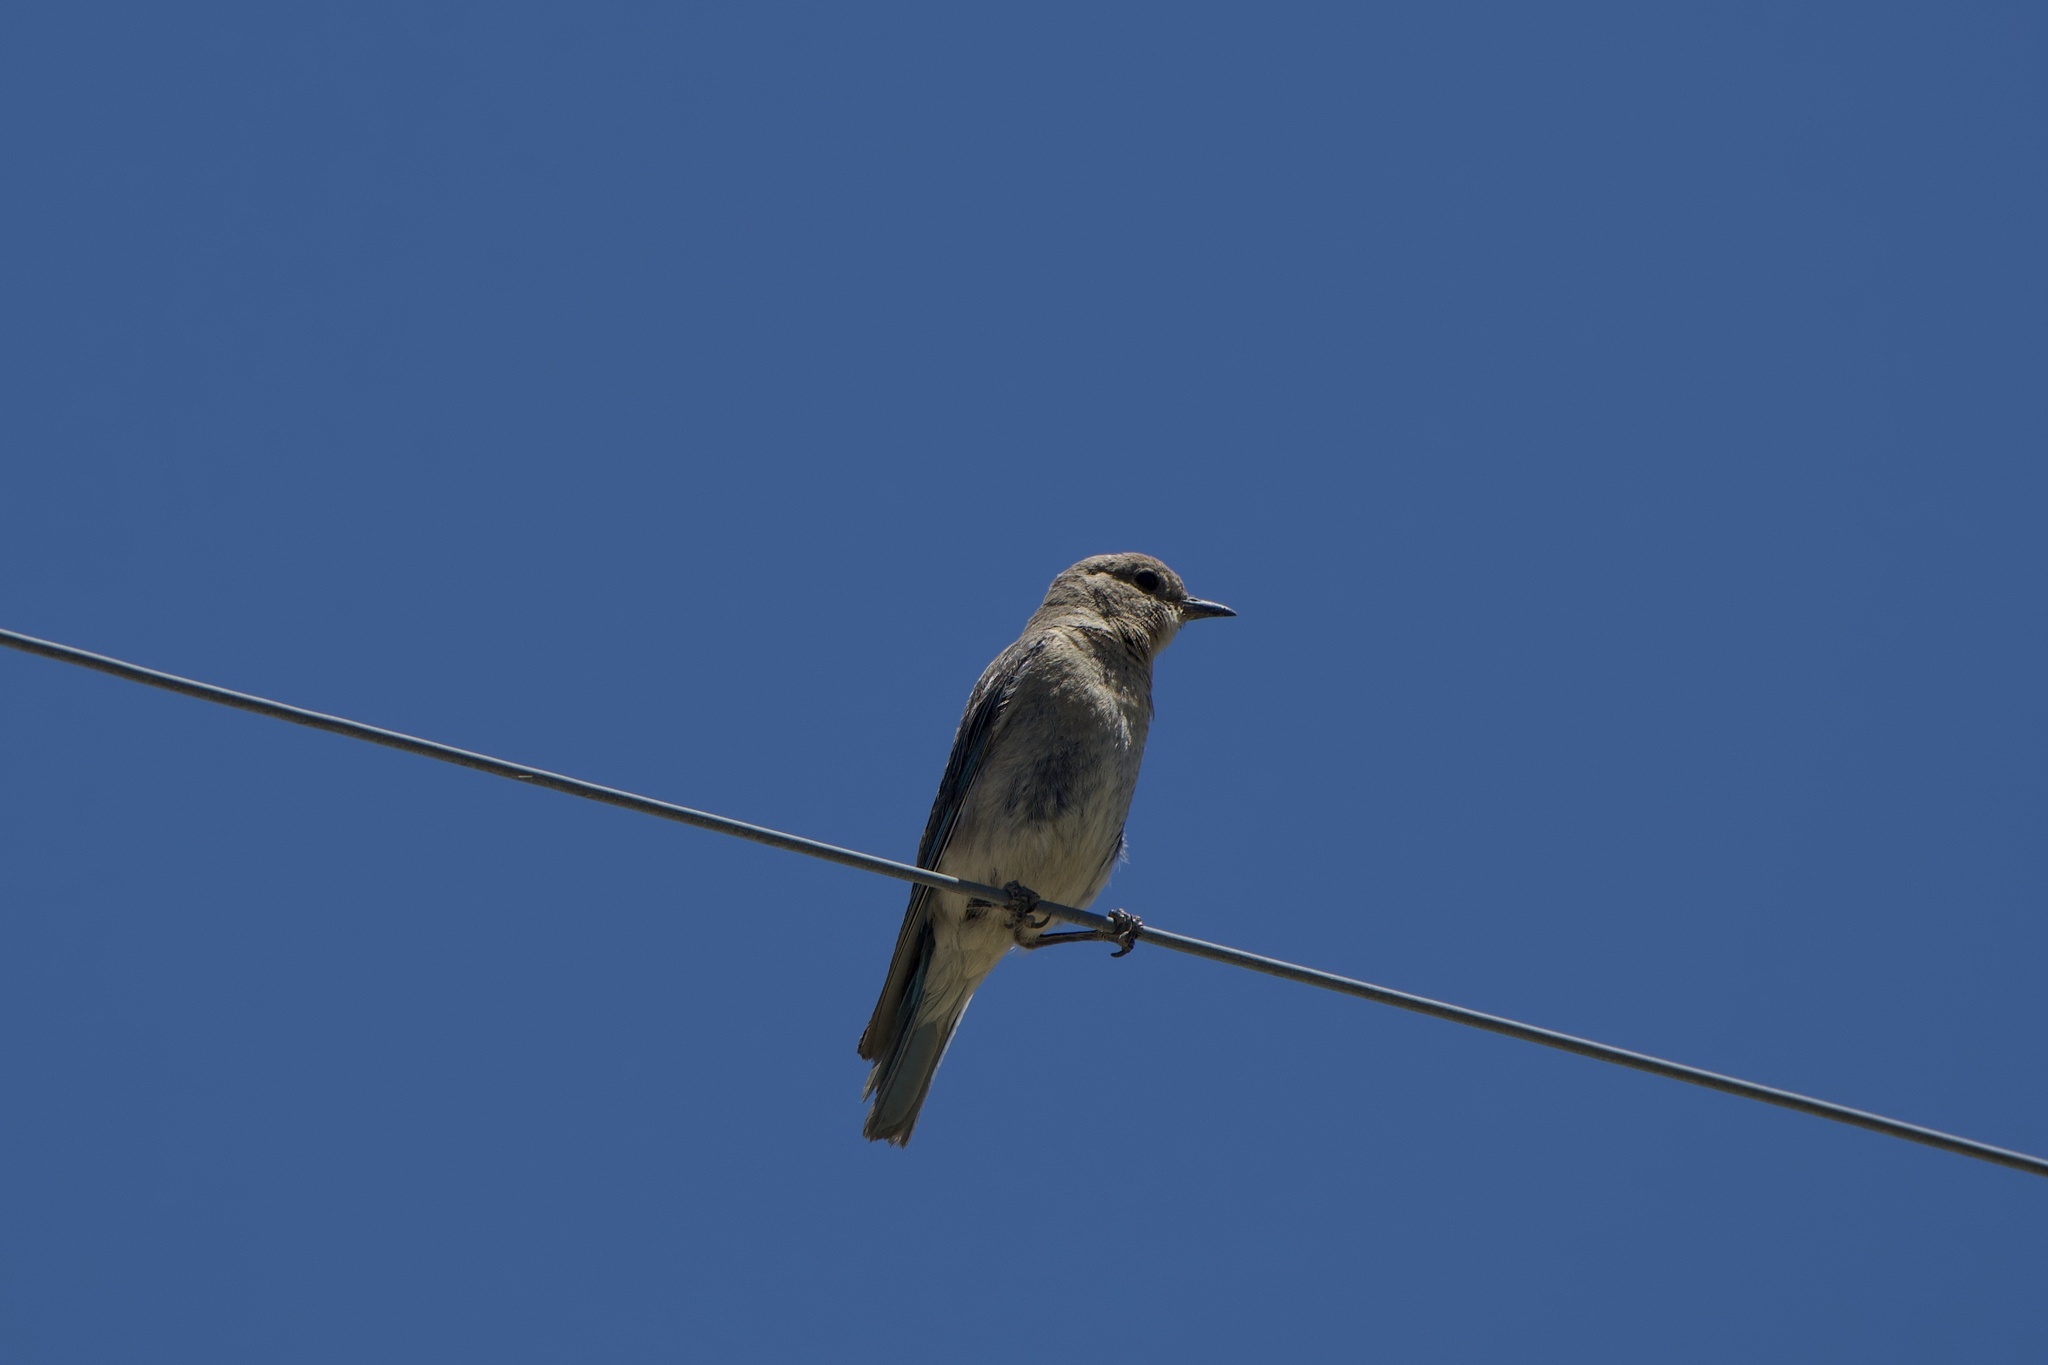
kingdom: Animalia
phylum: Chordata
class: Aves
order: Passeriformes
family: Turdidae
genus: Sialia
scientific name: Sialia currucoides
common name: Mountain bluebird
